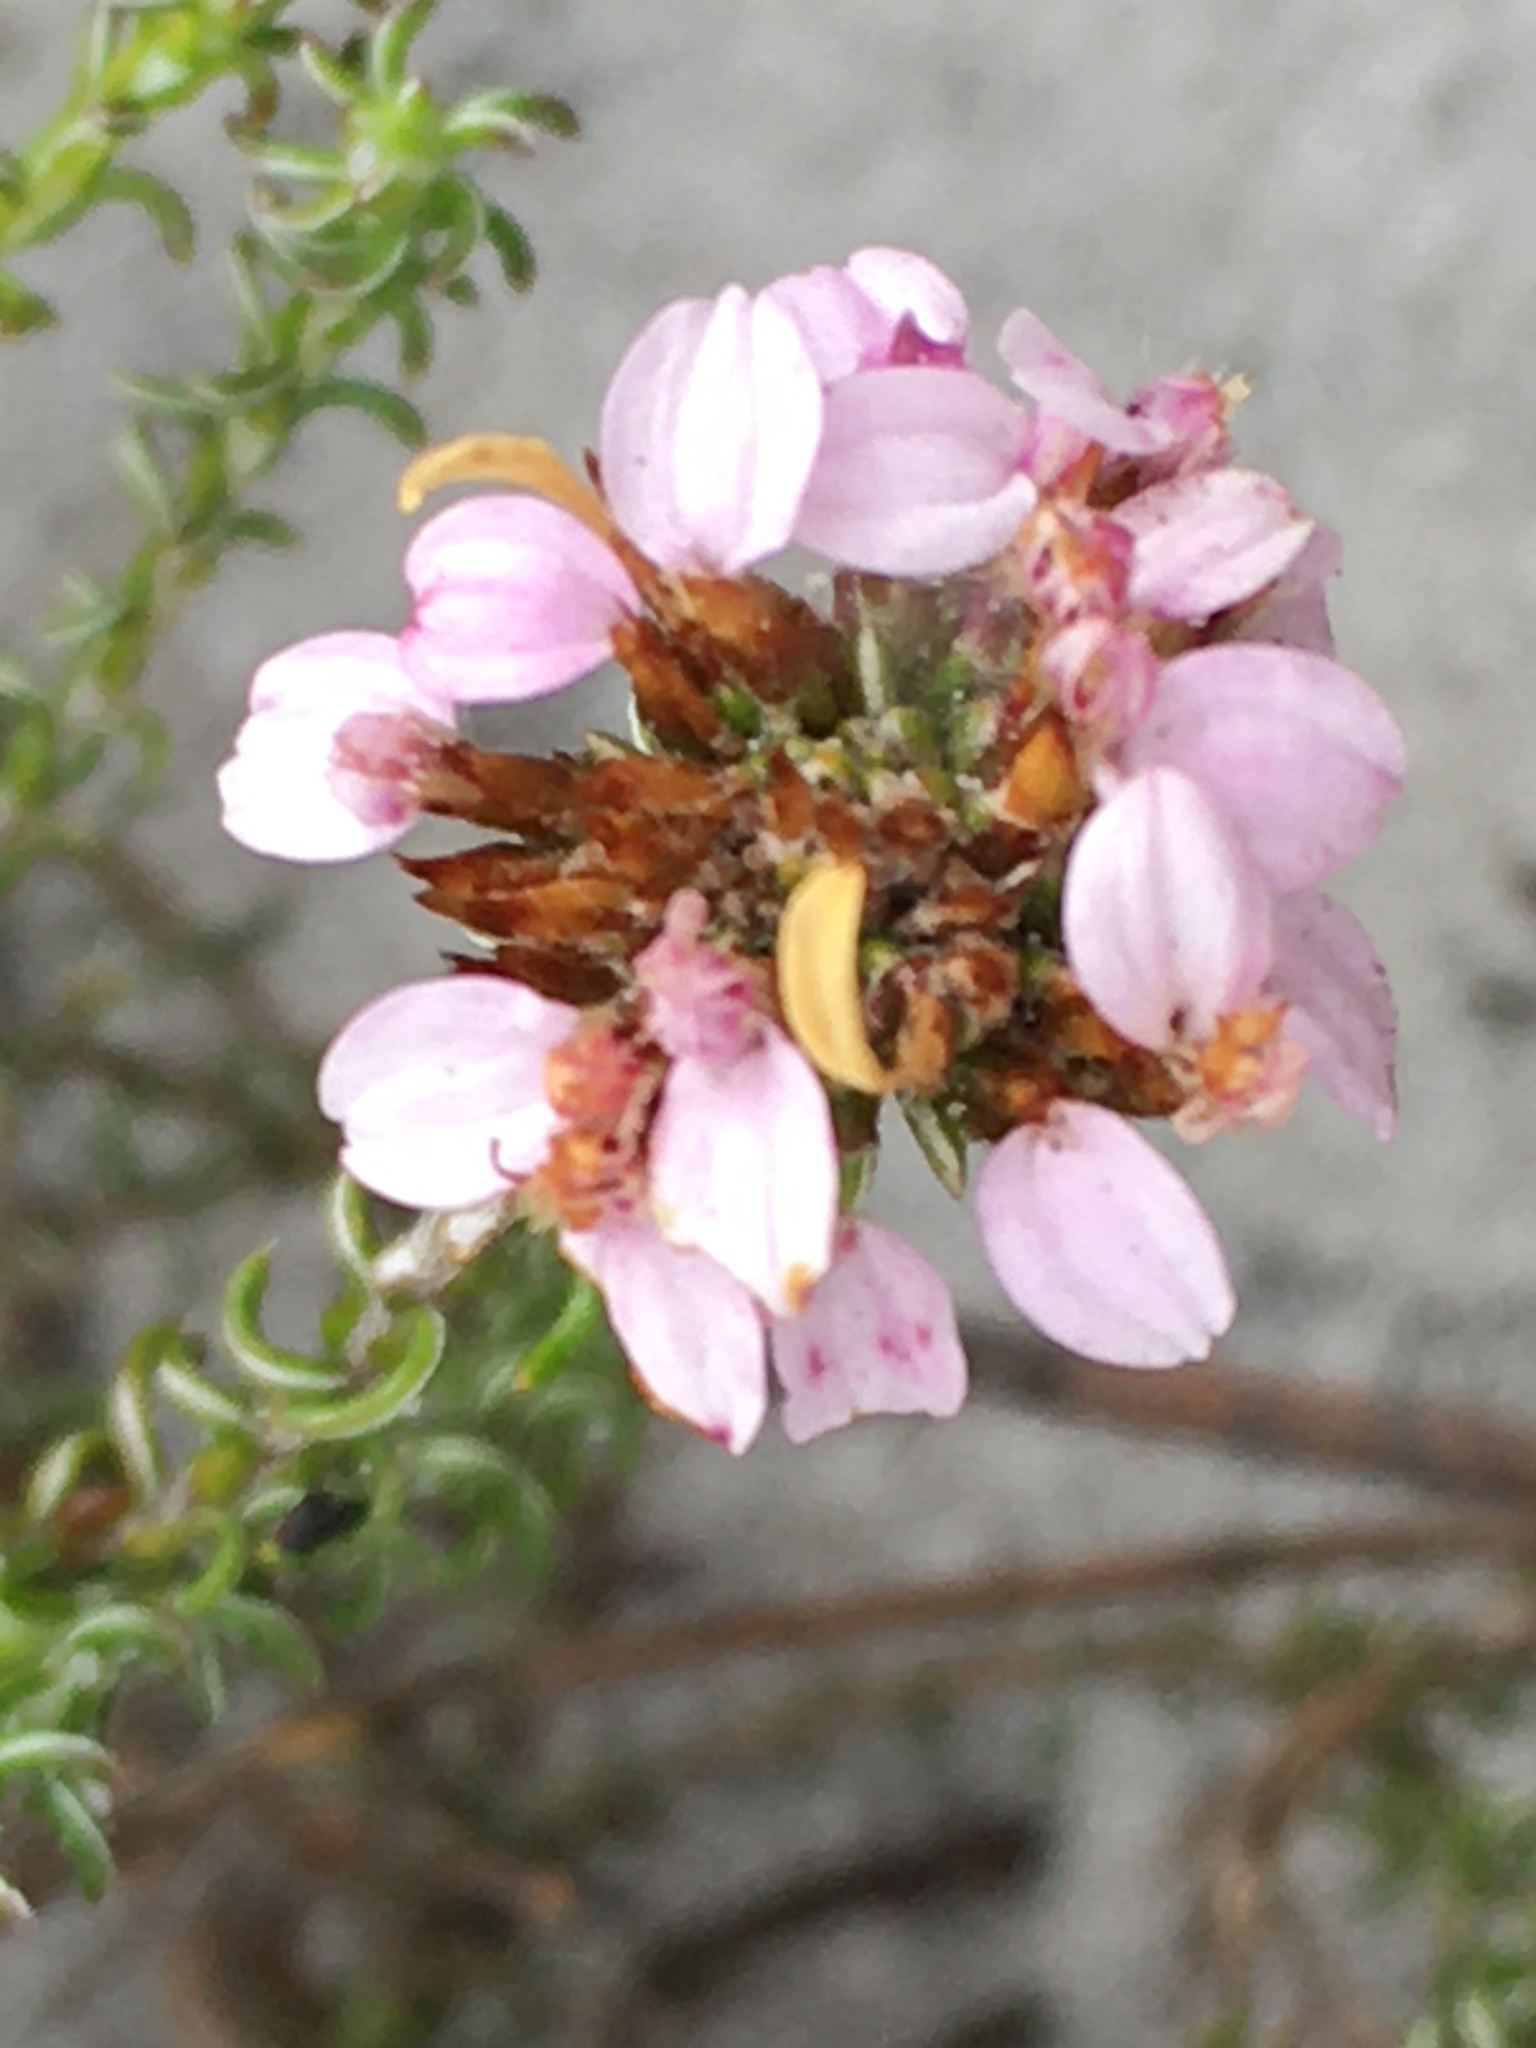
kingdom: Plantae
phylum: Tracheophyta
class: Magnoliopsida
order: Asterales
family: Asteraceae
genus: Disparago
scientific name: Disparago ericoides
